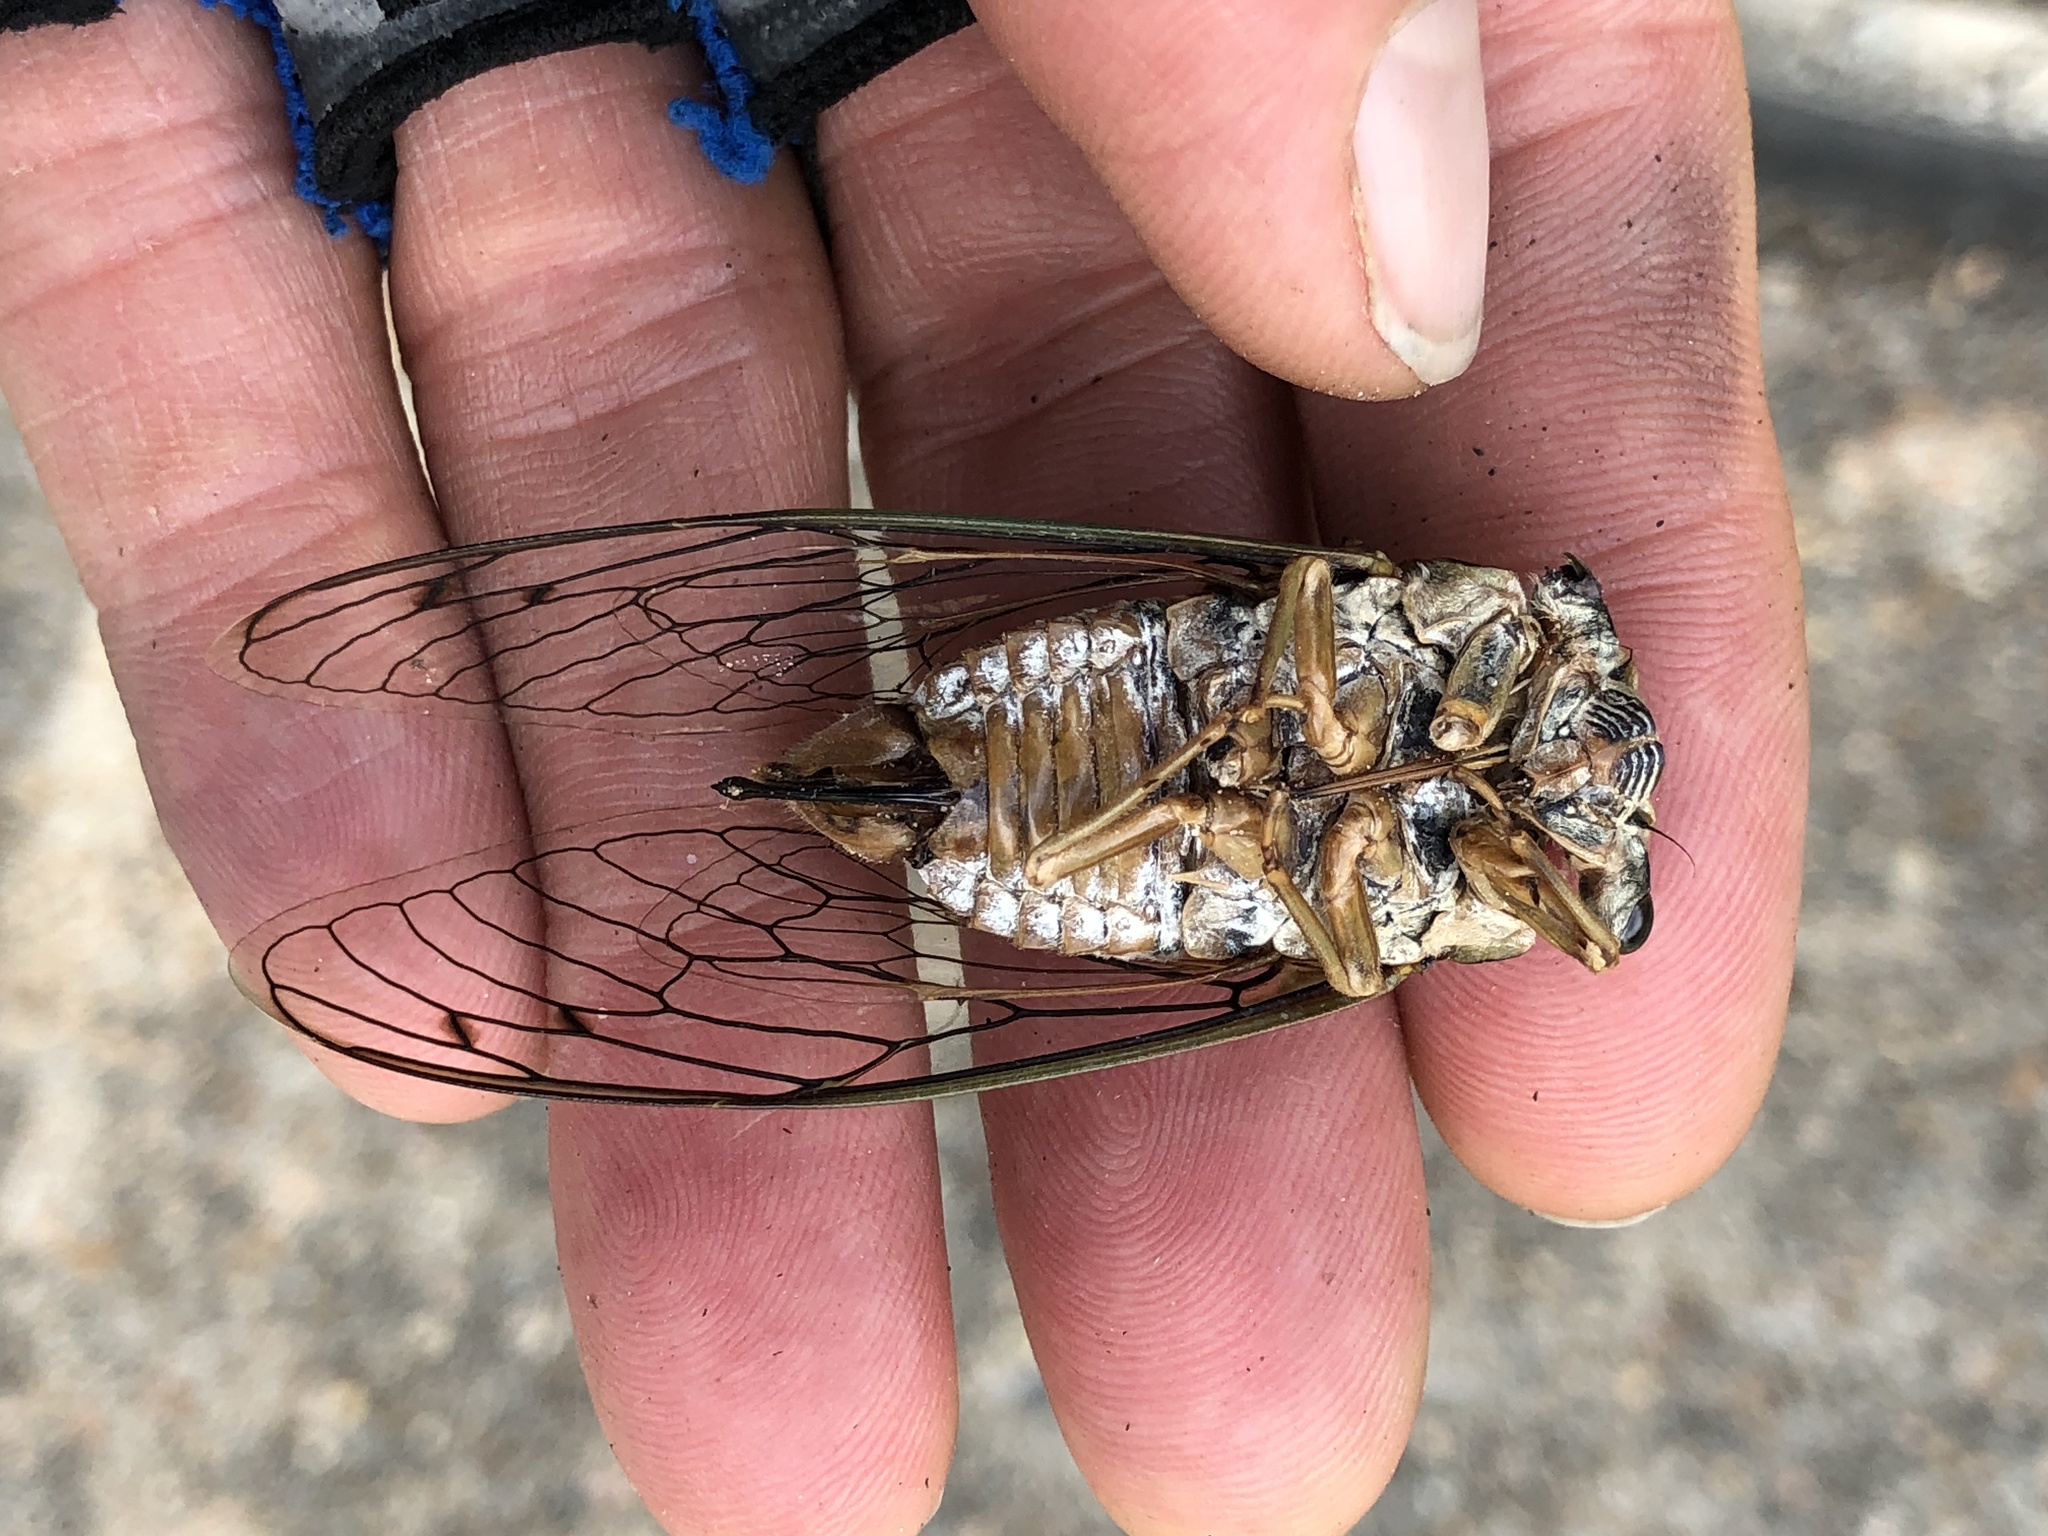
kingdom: Animalia
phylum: Arthropoda
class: Insecta
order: Hemiptera
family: Cicadidae
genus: Megatibicen
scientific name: Megatibicen resh
